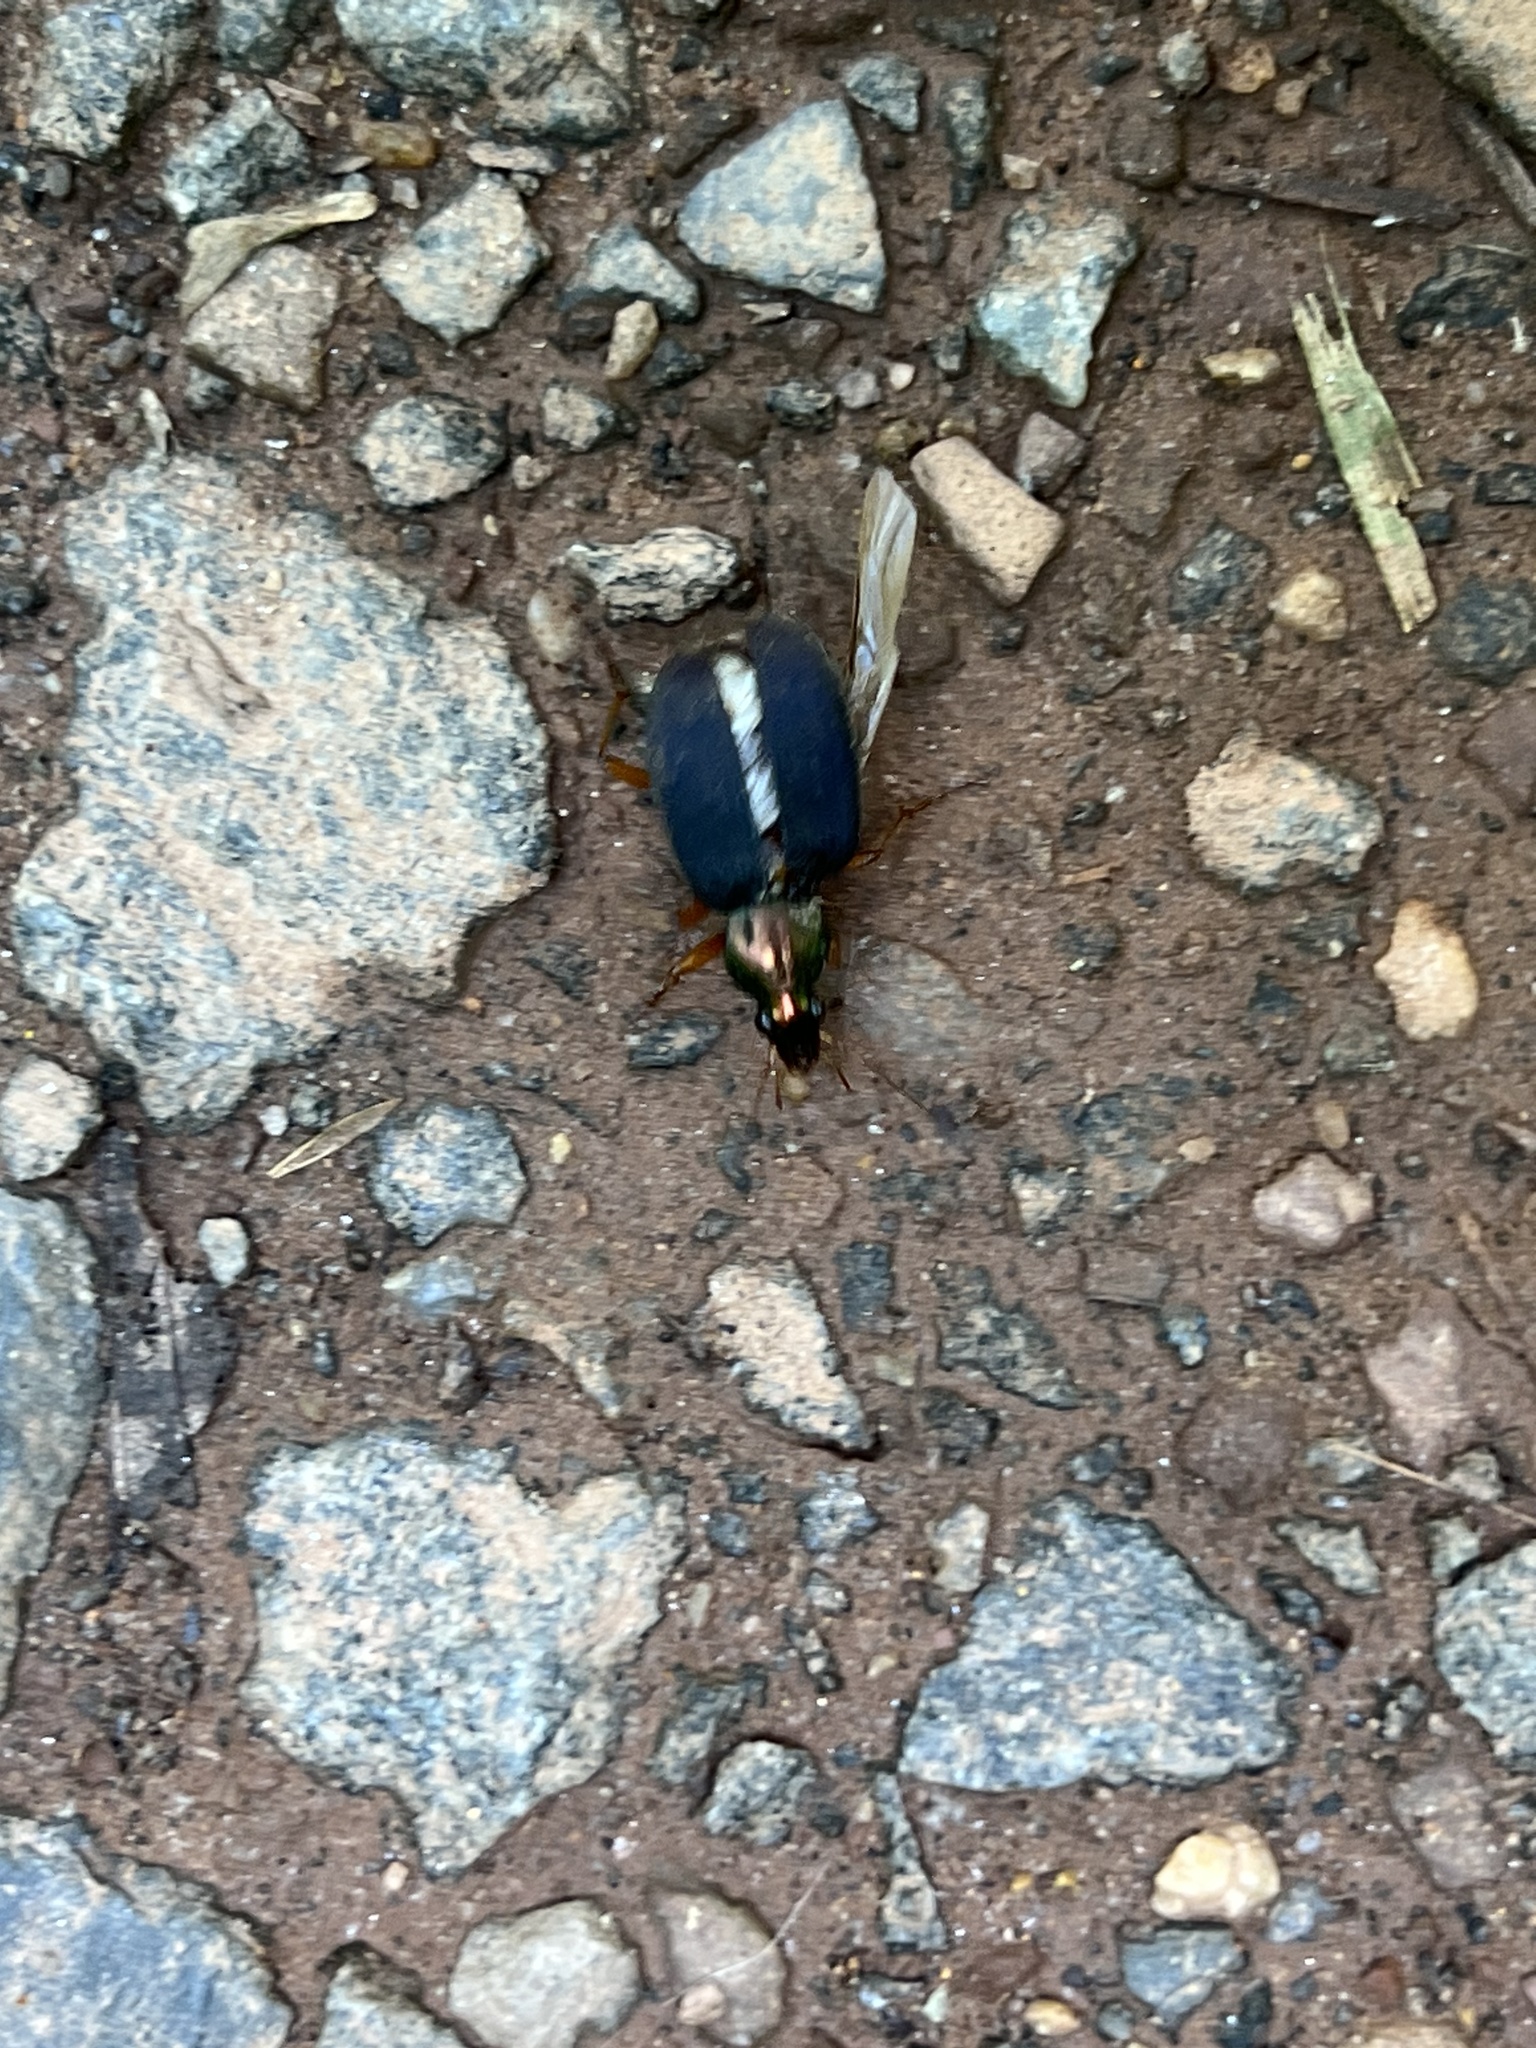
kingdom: Animalia
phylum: Arthropoda
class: Insecta
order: Coleoptera
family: Carabidae
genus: Chlaenius
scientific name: Chlaenius tricolor
